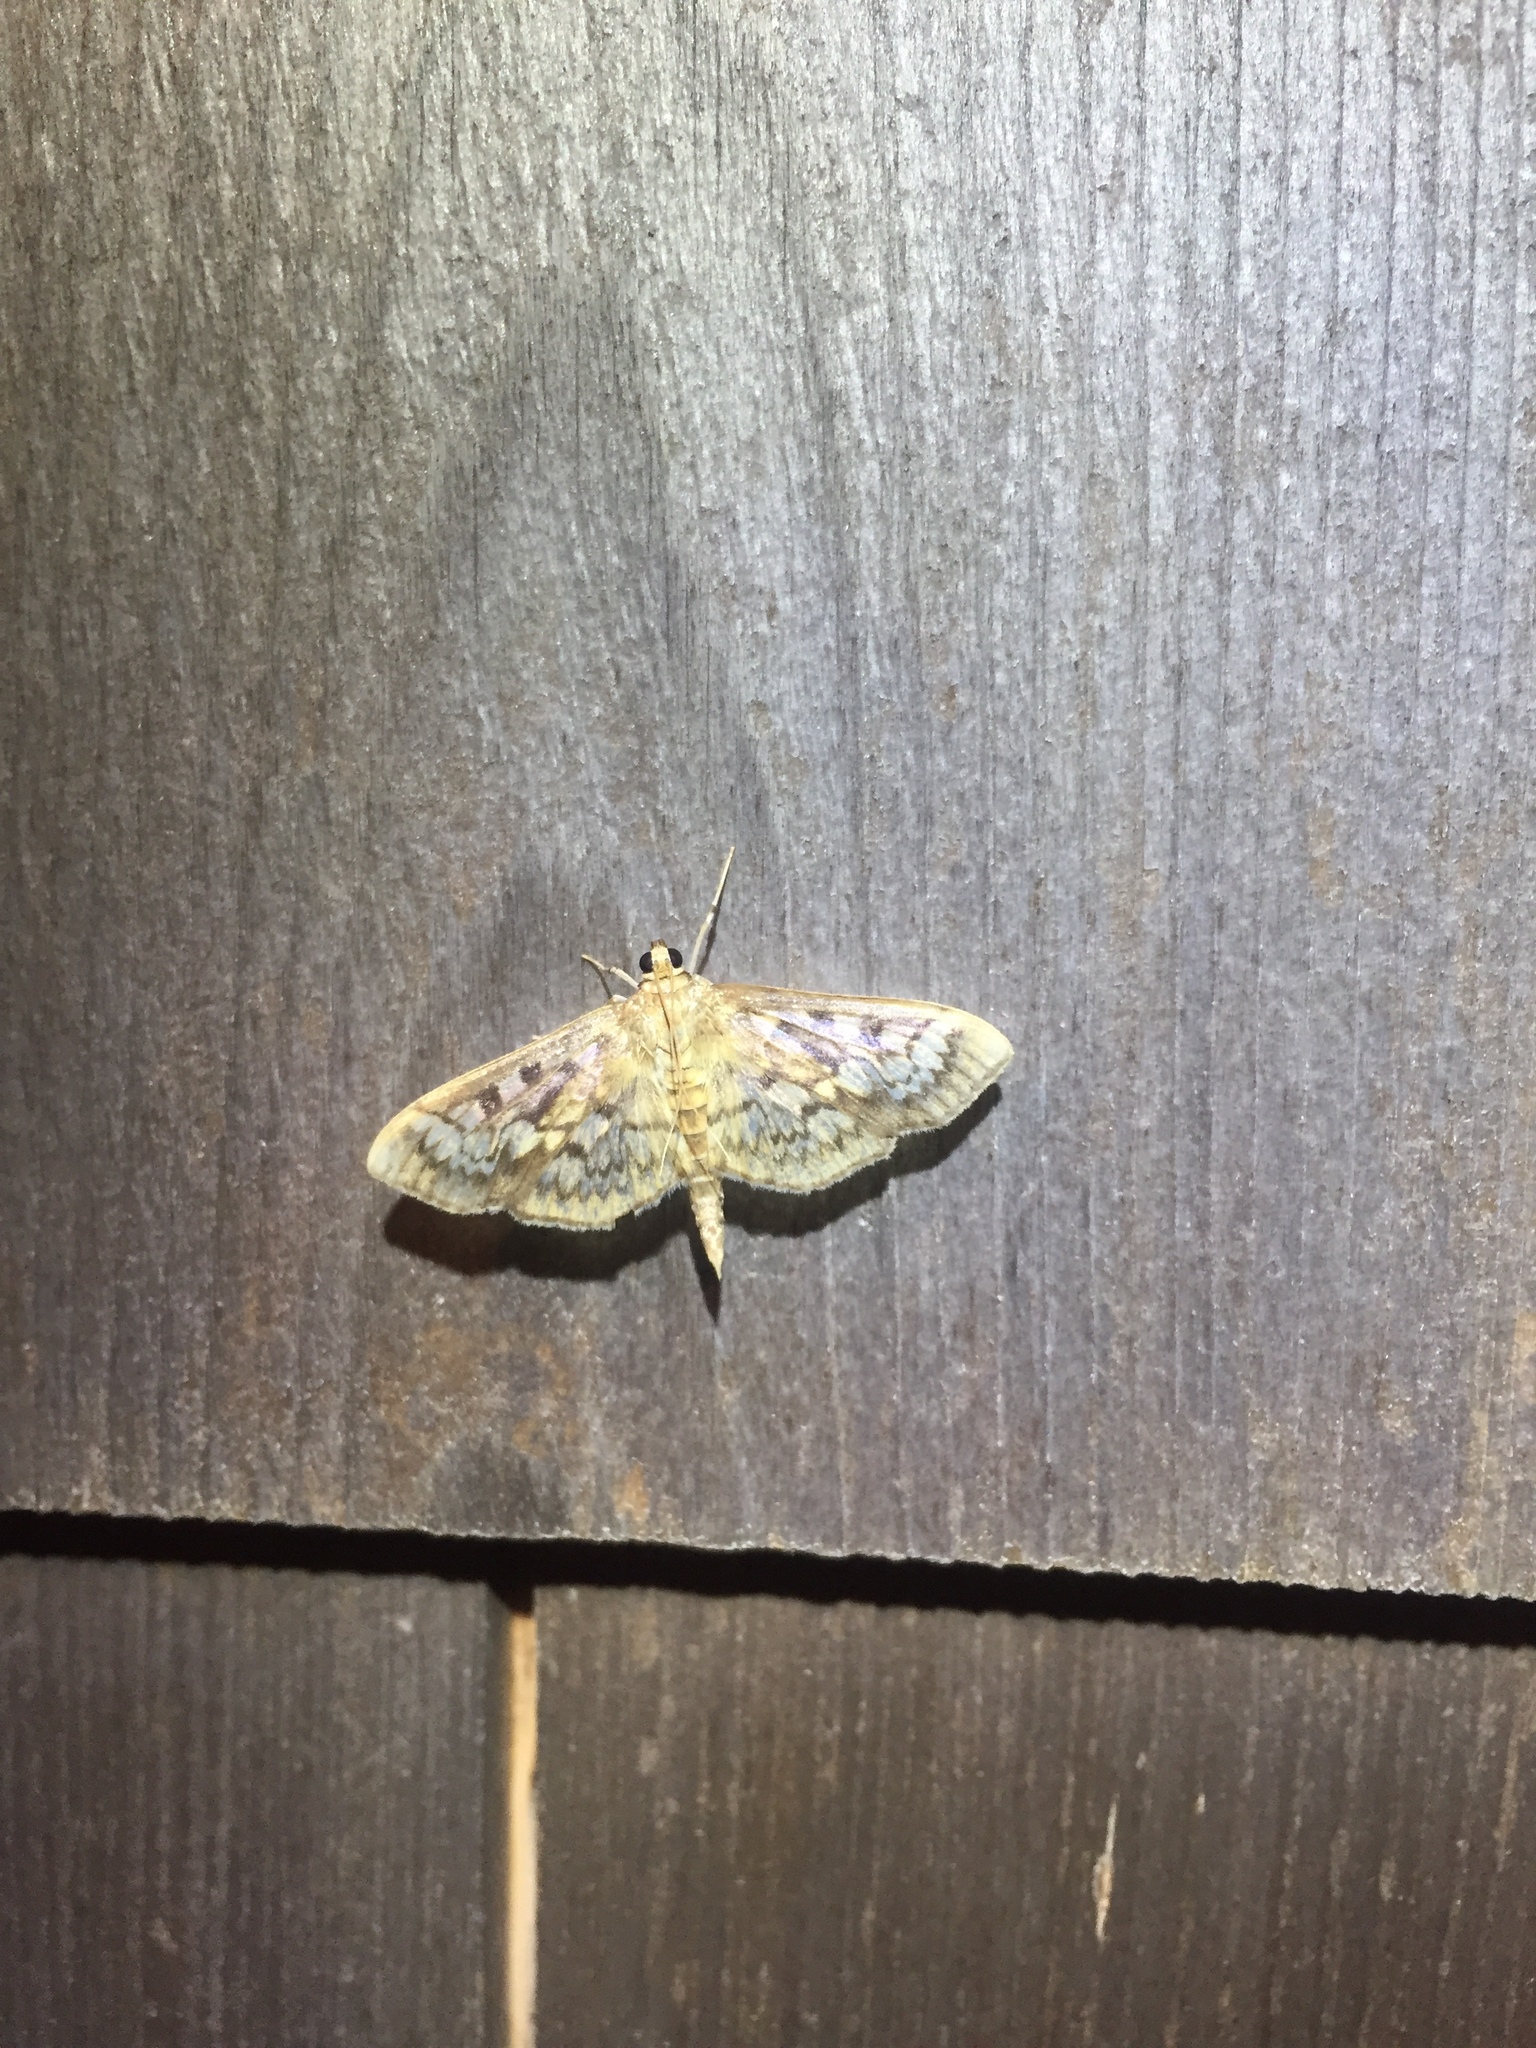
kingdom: Animalia
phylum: Arthropoda
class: Insecta
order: Lepidoptera
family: Crambidae
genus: Herpetogramma
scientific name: Herpetogramma thestealis
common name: Zigzag herpetogramma moth
